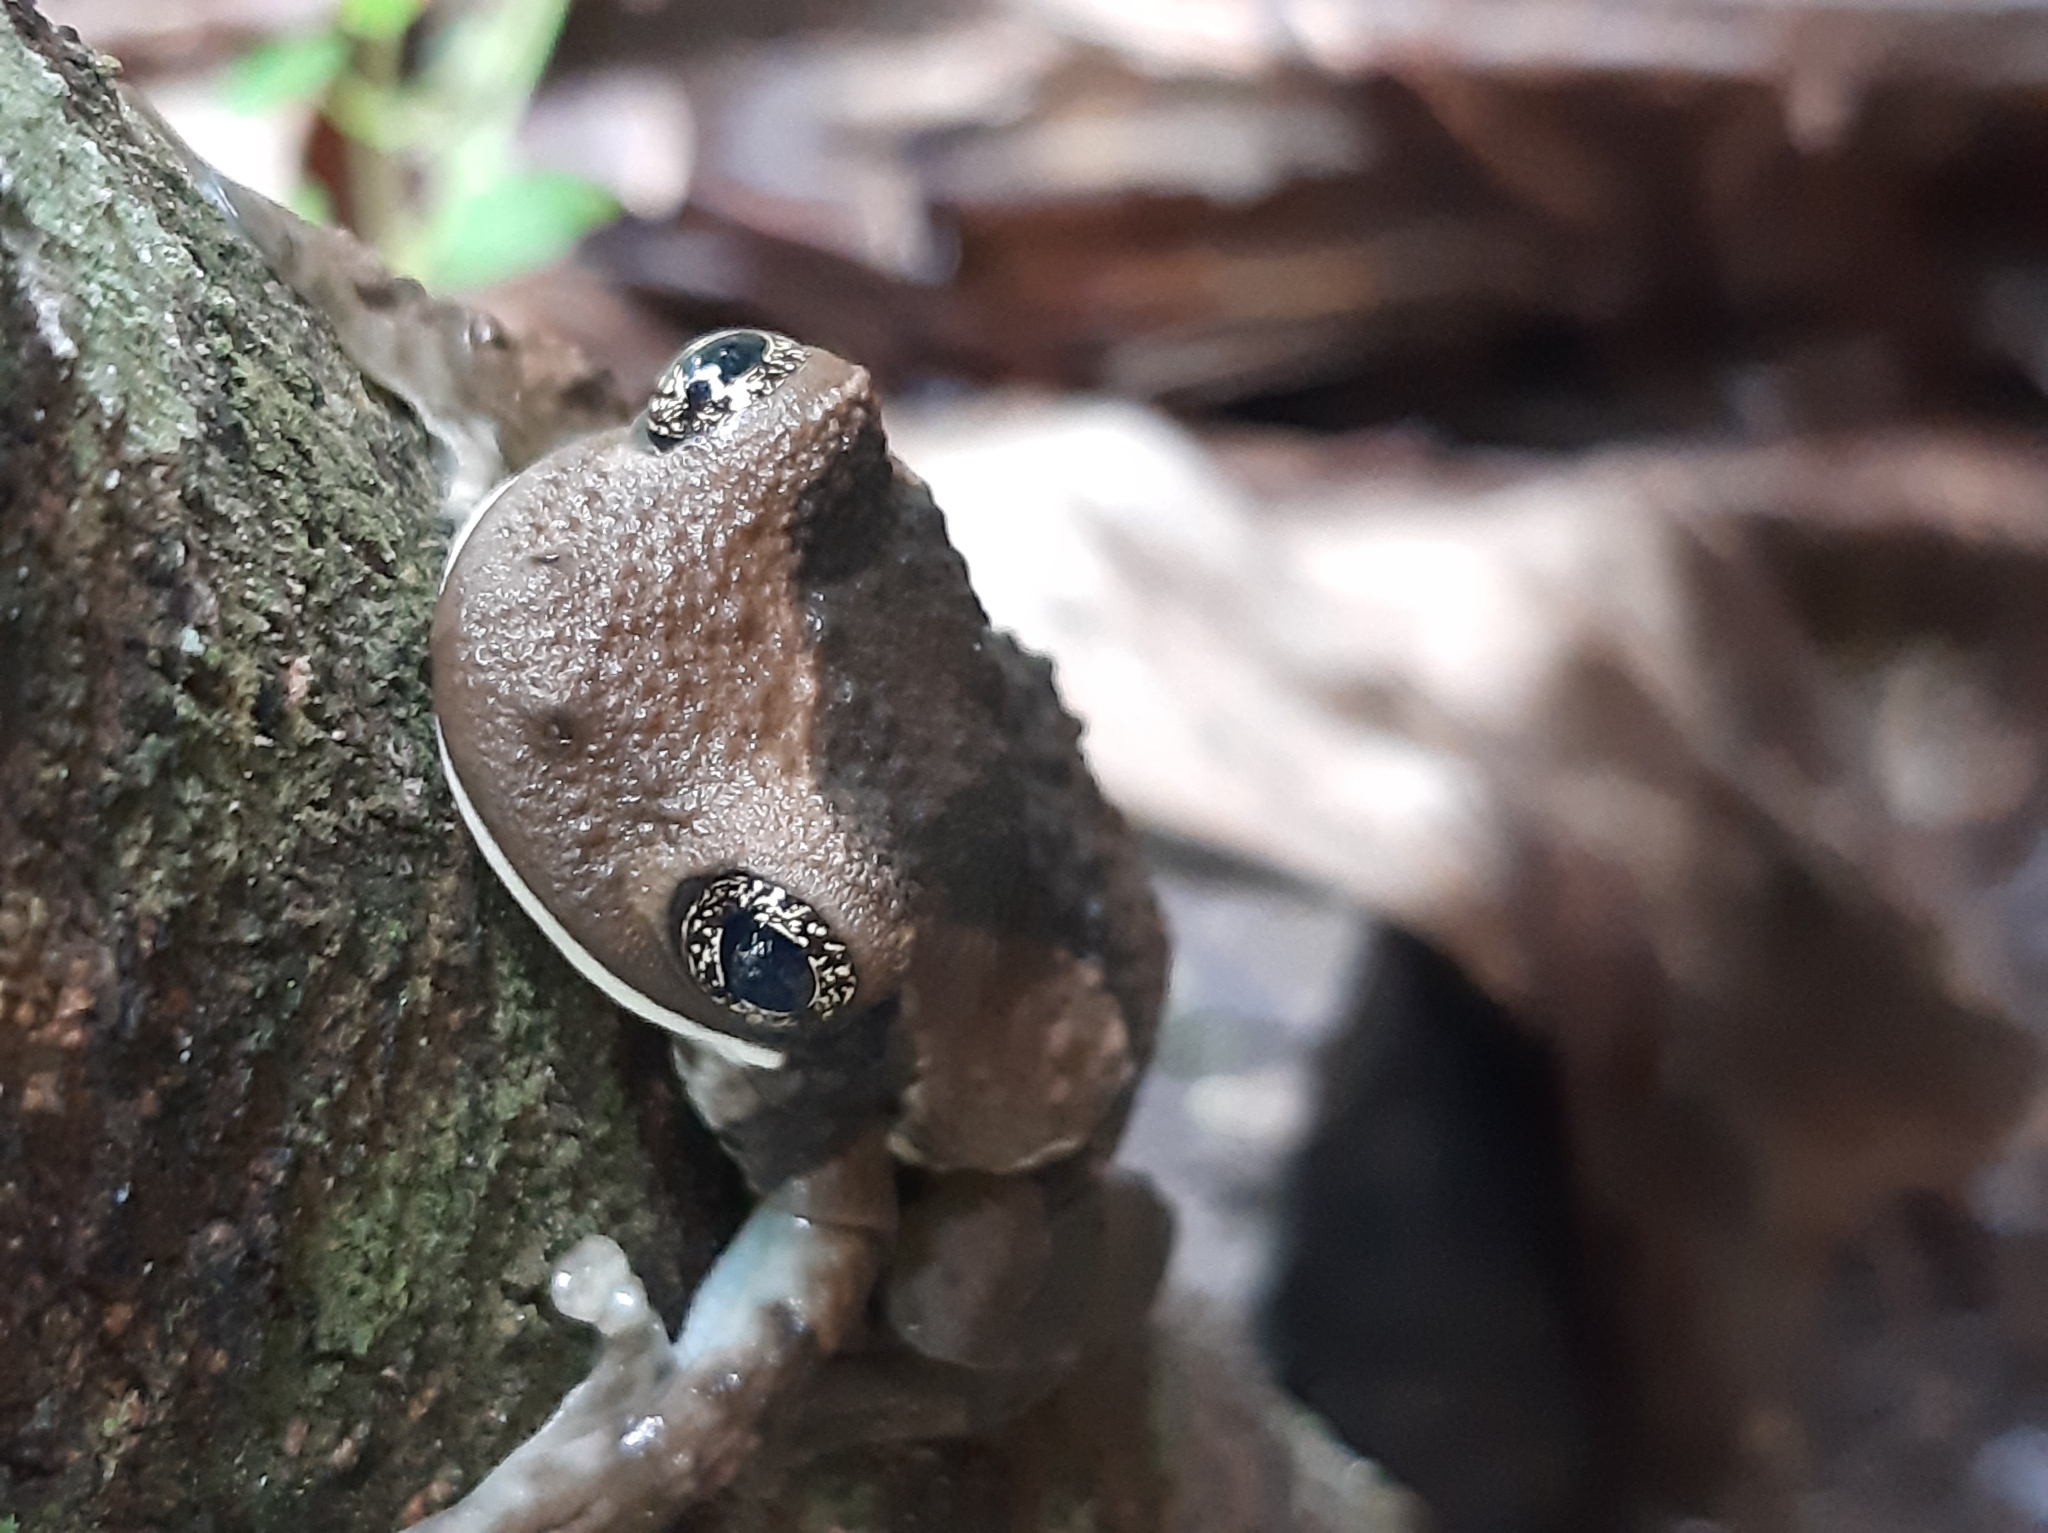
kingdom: Animalia
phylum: Chordata
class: Amphibia
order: Anura
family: Hylidae
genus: Trachycephalus
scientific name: Trachycephalus vermiculatus
